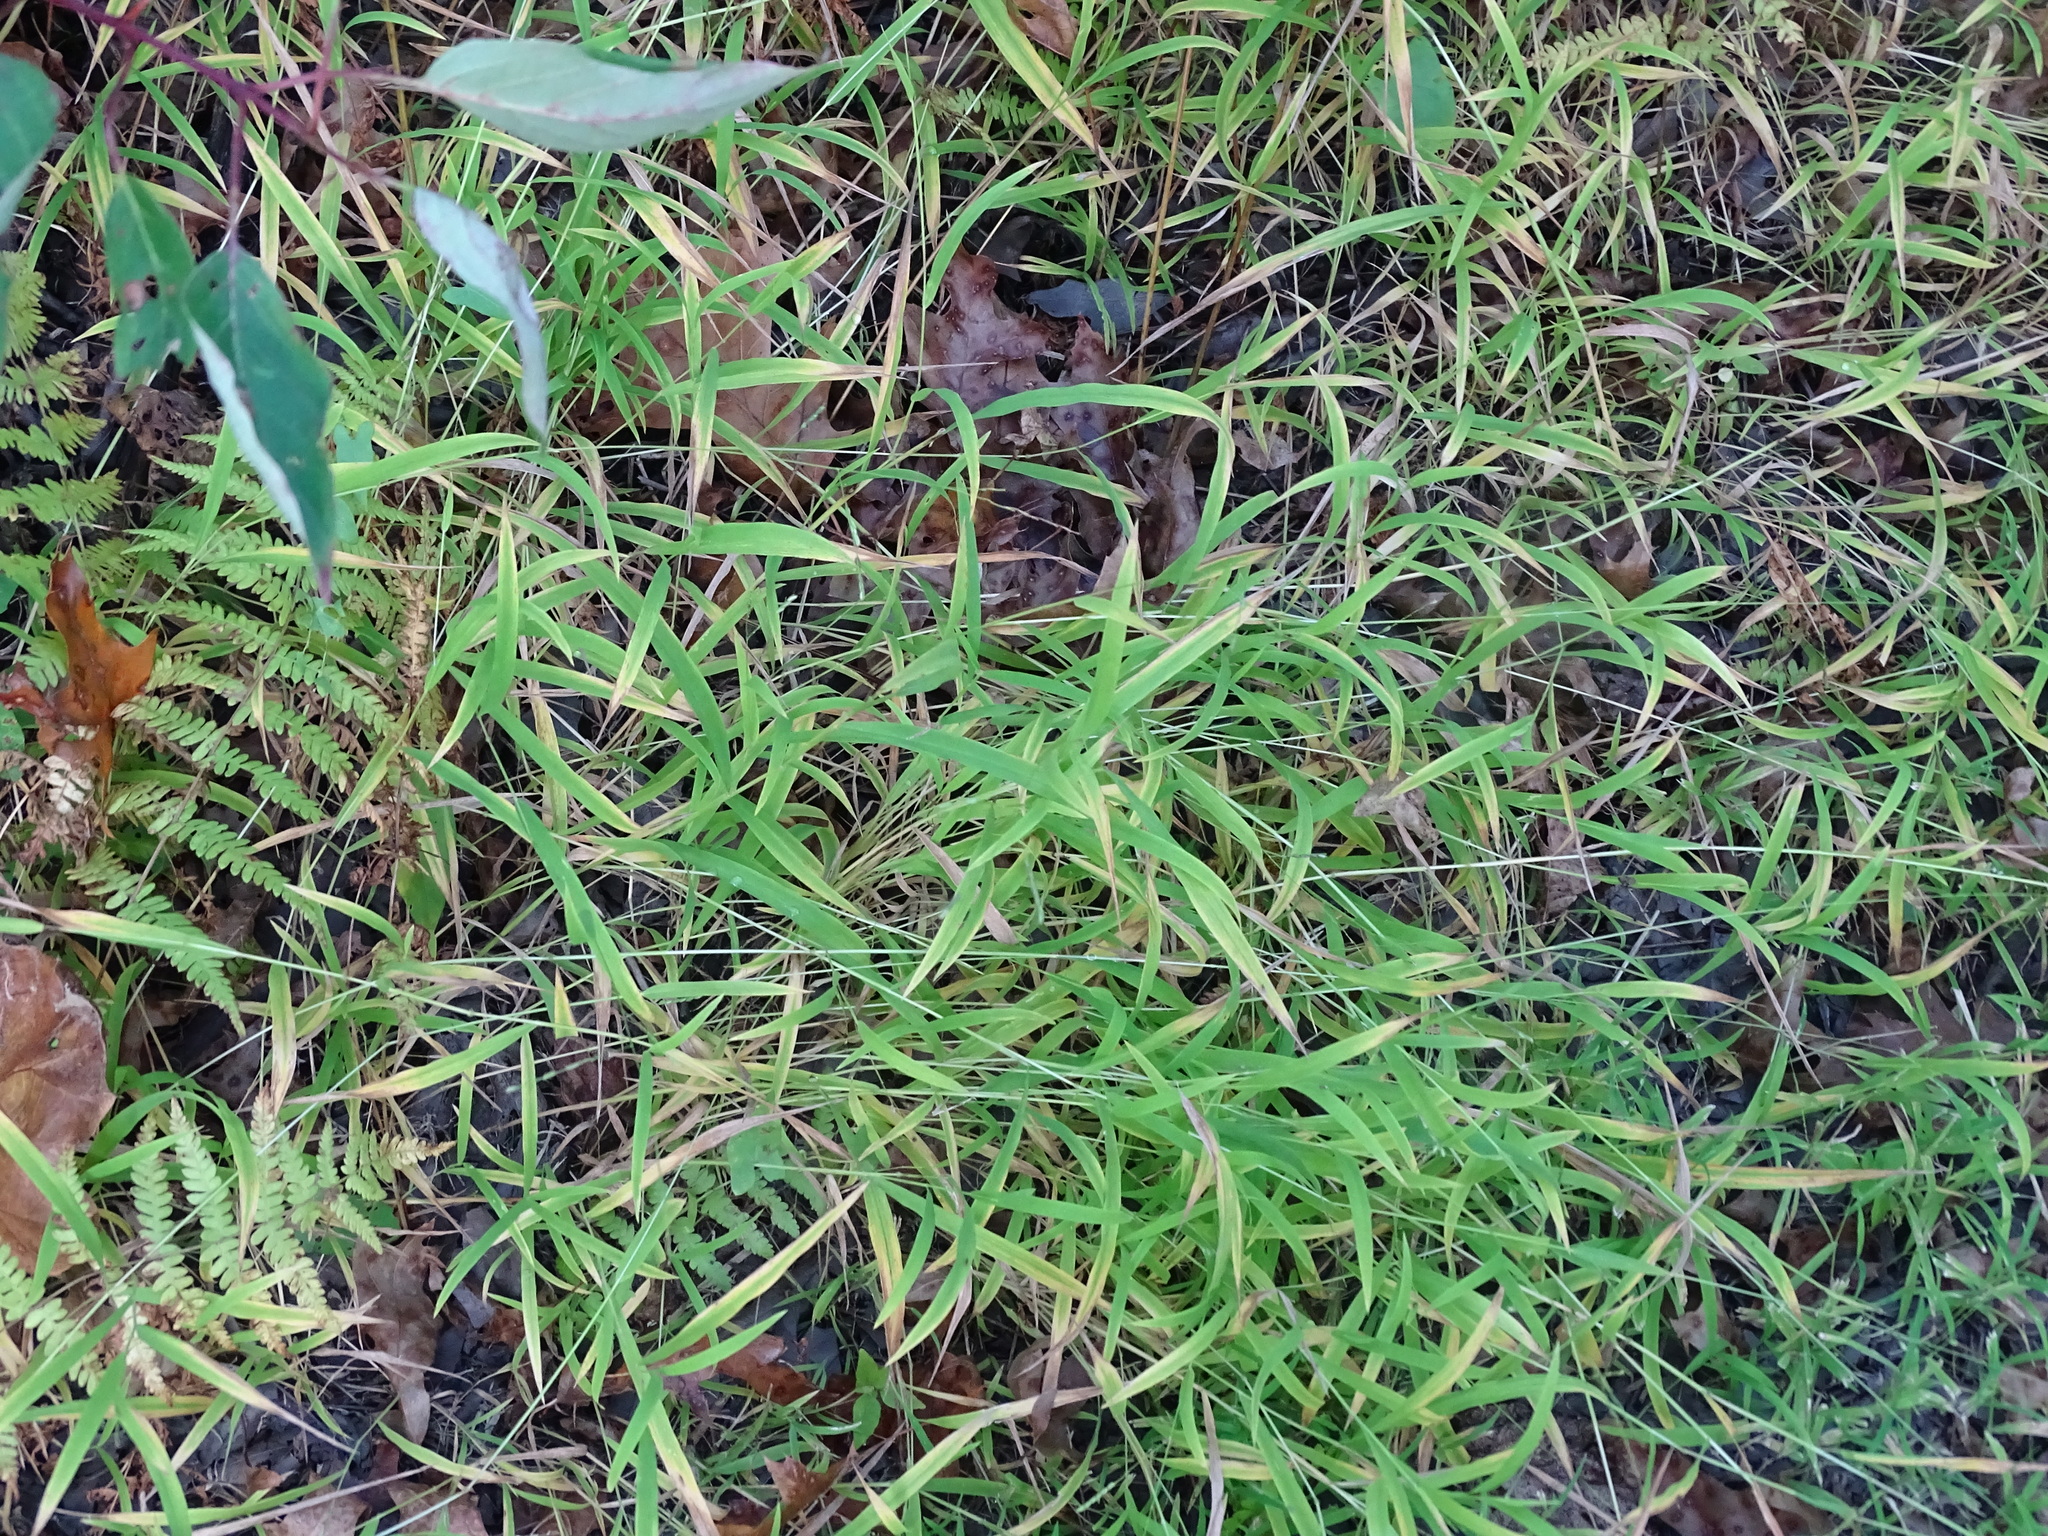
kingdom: Plantae
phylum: Tracheophyta
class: Liliopsida
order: Poales
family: Poaceae
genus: Leersia
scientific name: Leersia virginica
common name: White cutgrass
